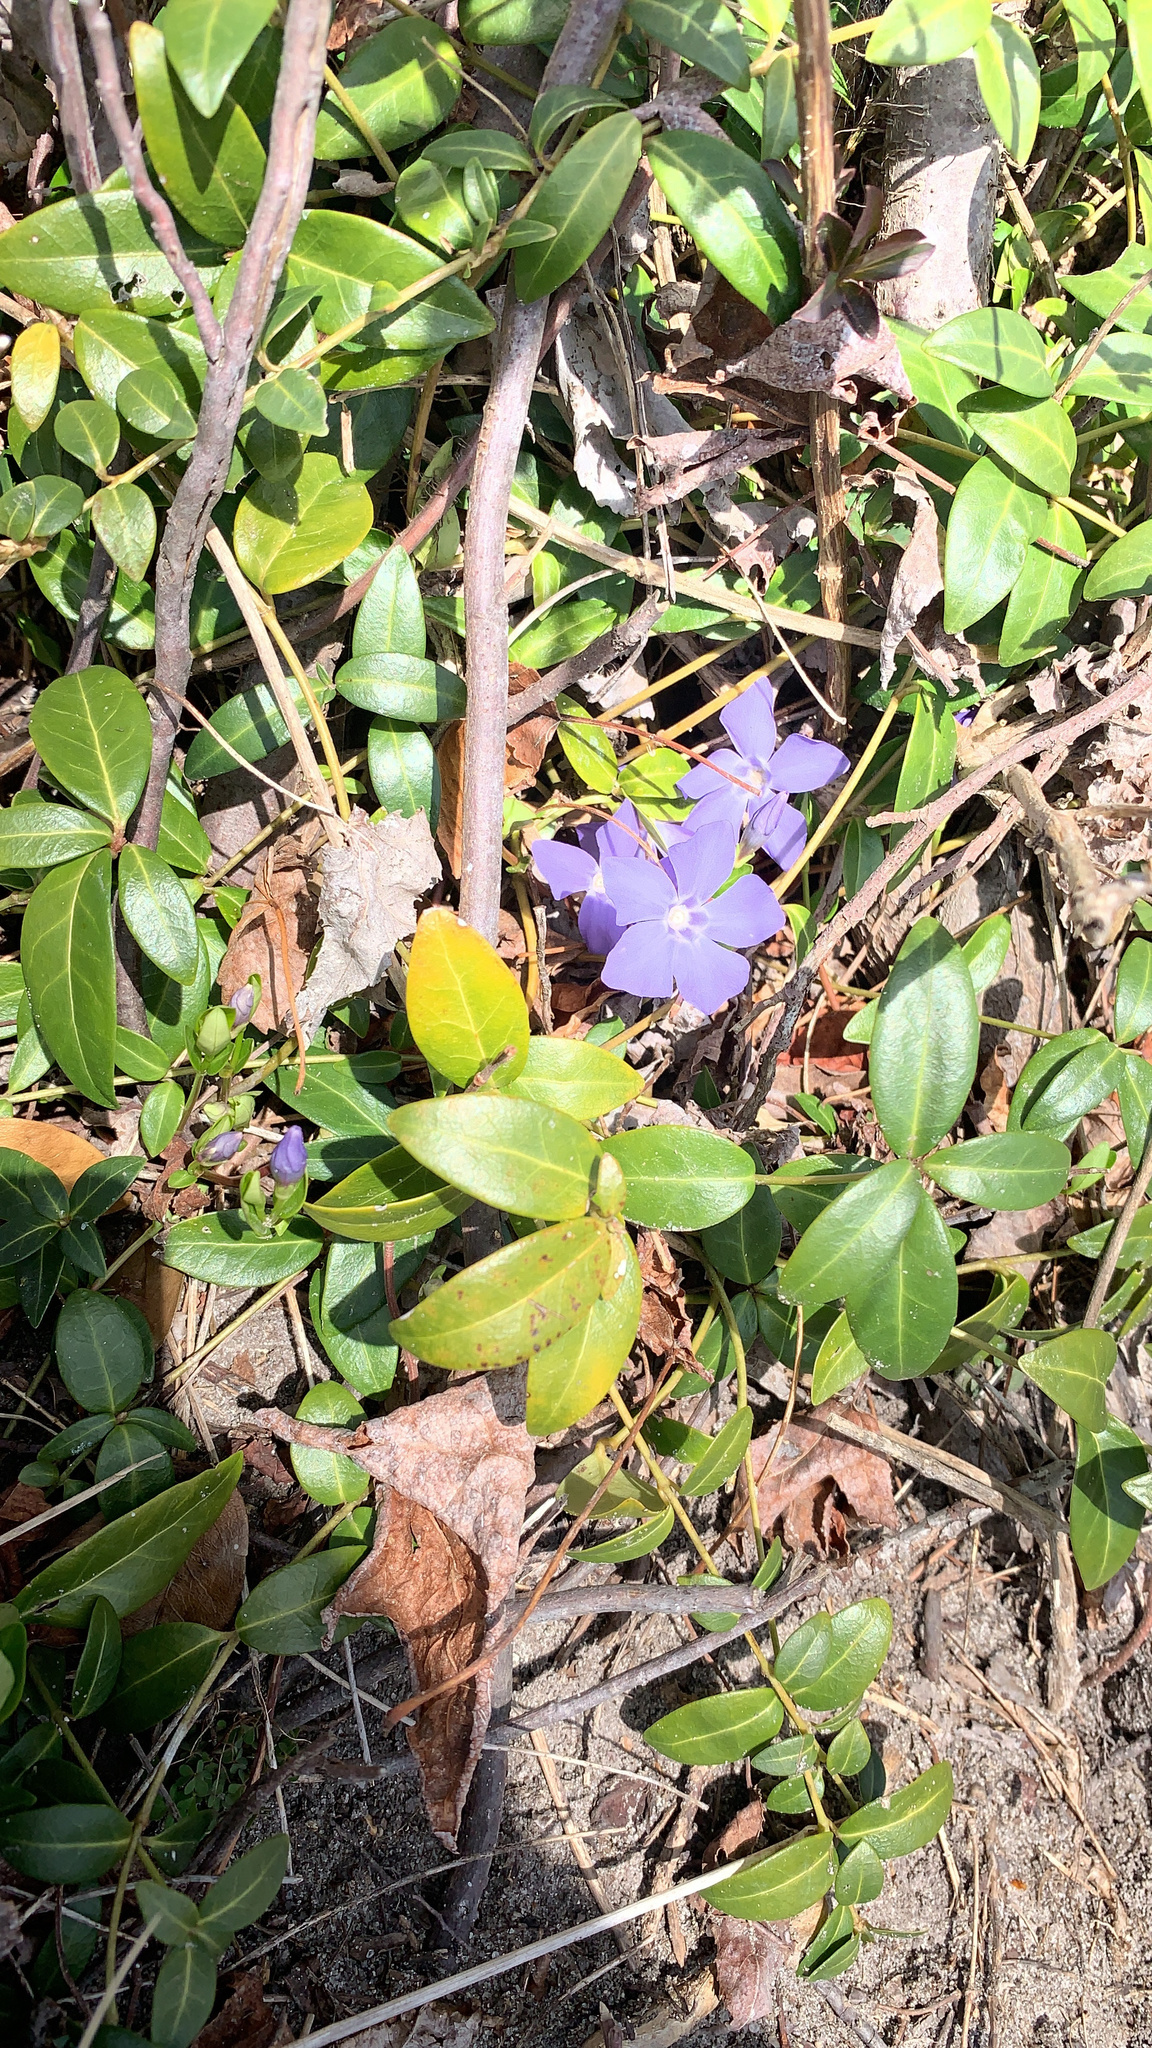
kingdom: Plantae
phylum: Tracheophyta
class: Magnoliopsida
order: Gentianales
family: Apocynaceae
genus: Vinca
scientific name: Vinca minor
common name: Lesser periwinkle
